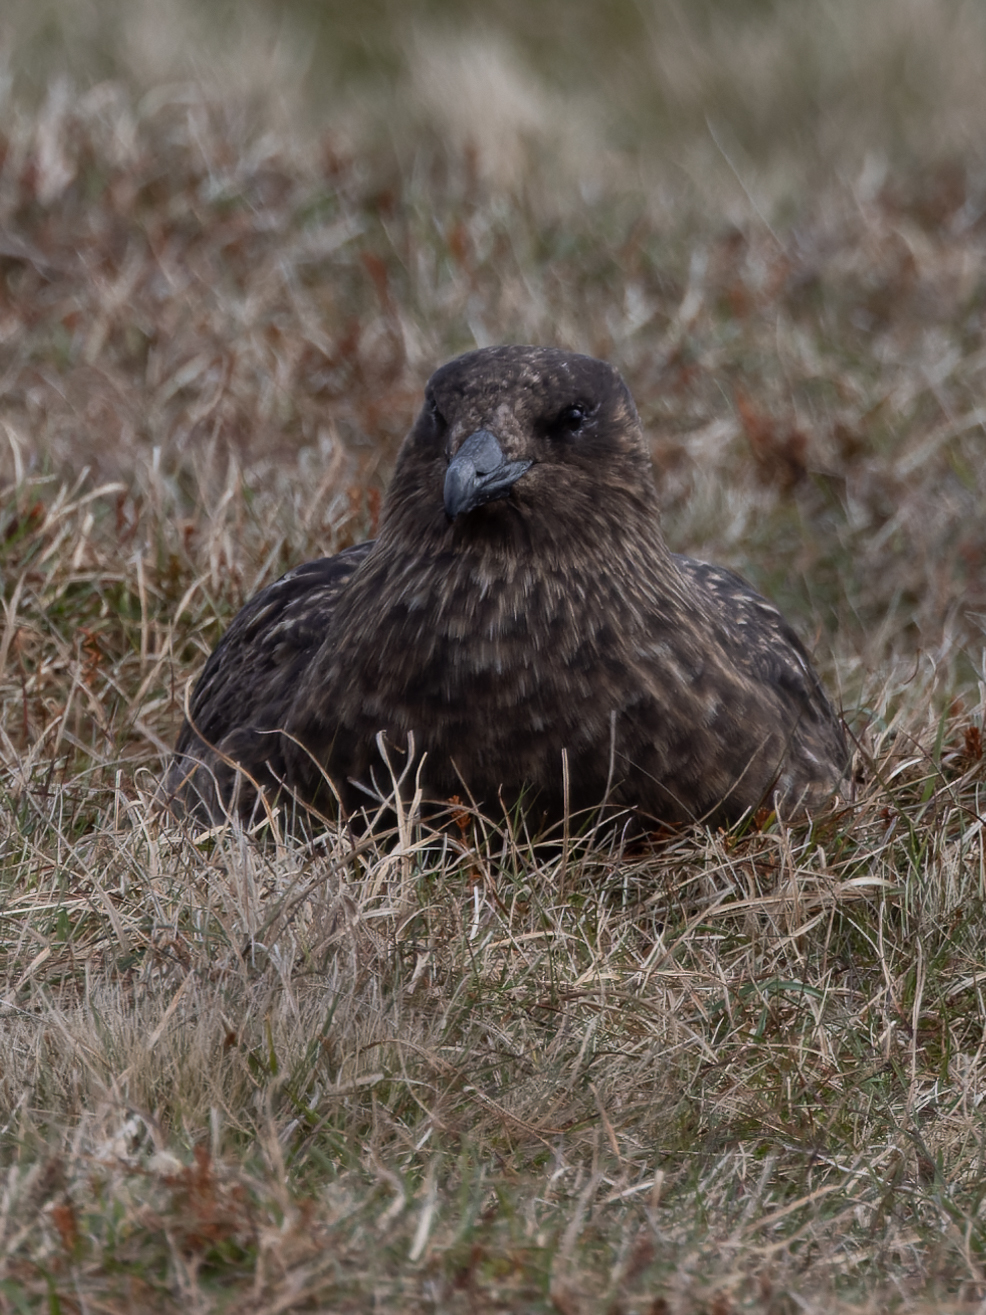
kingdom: Animalia
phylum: Chordata
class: Aves
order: Charadriiformes
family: Stercorariidae
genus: Stercorarius
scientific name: Stercorarius skua
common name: Great skua
